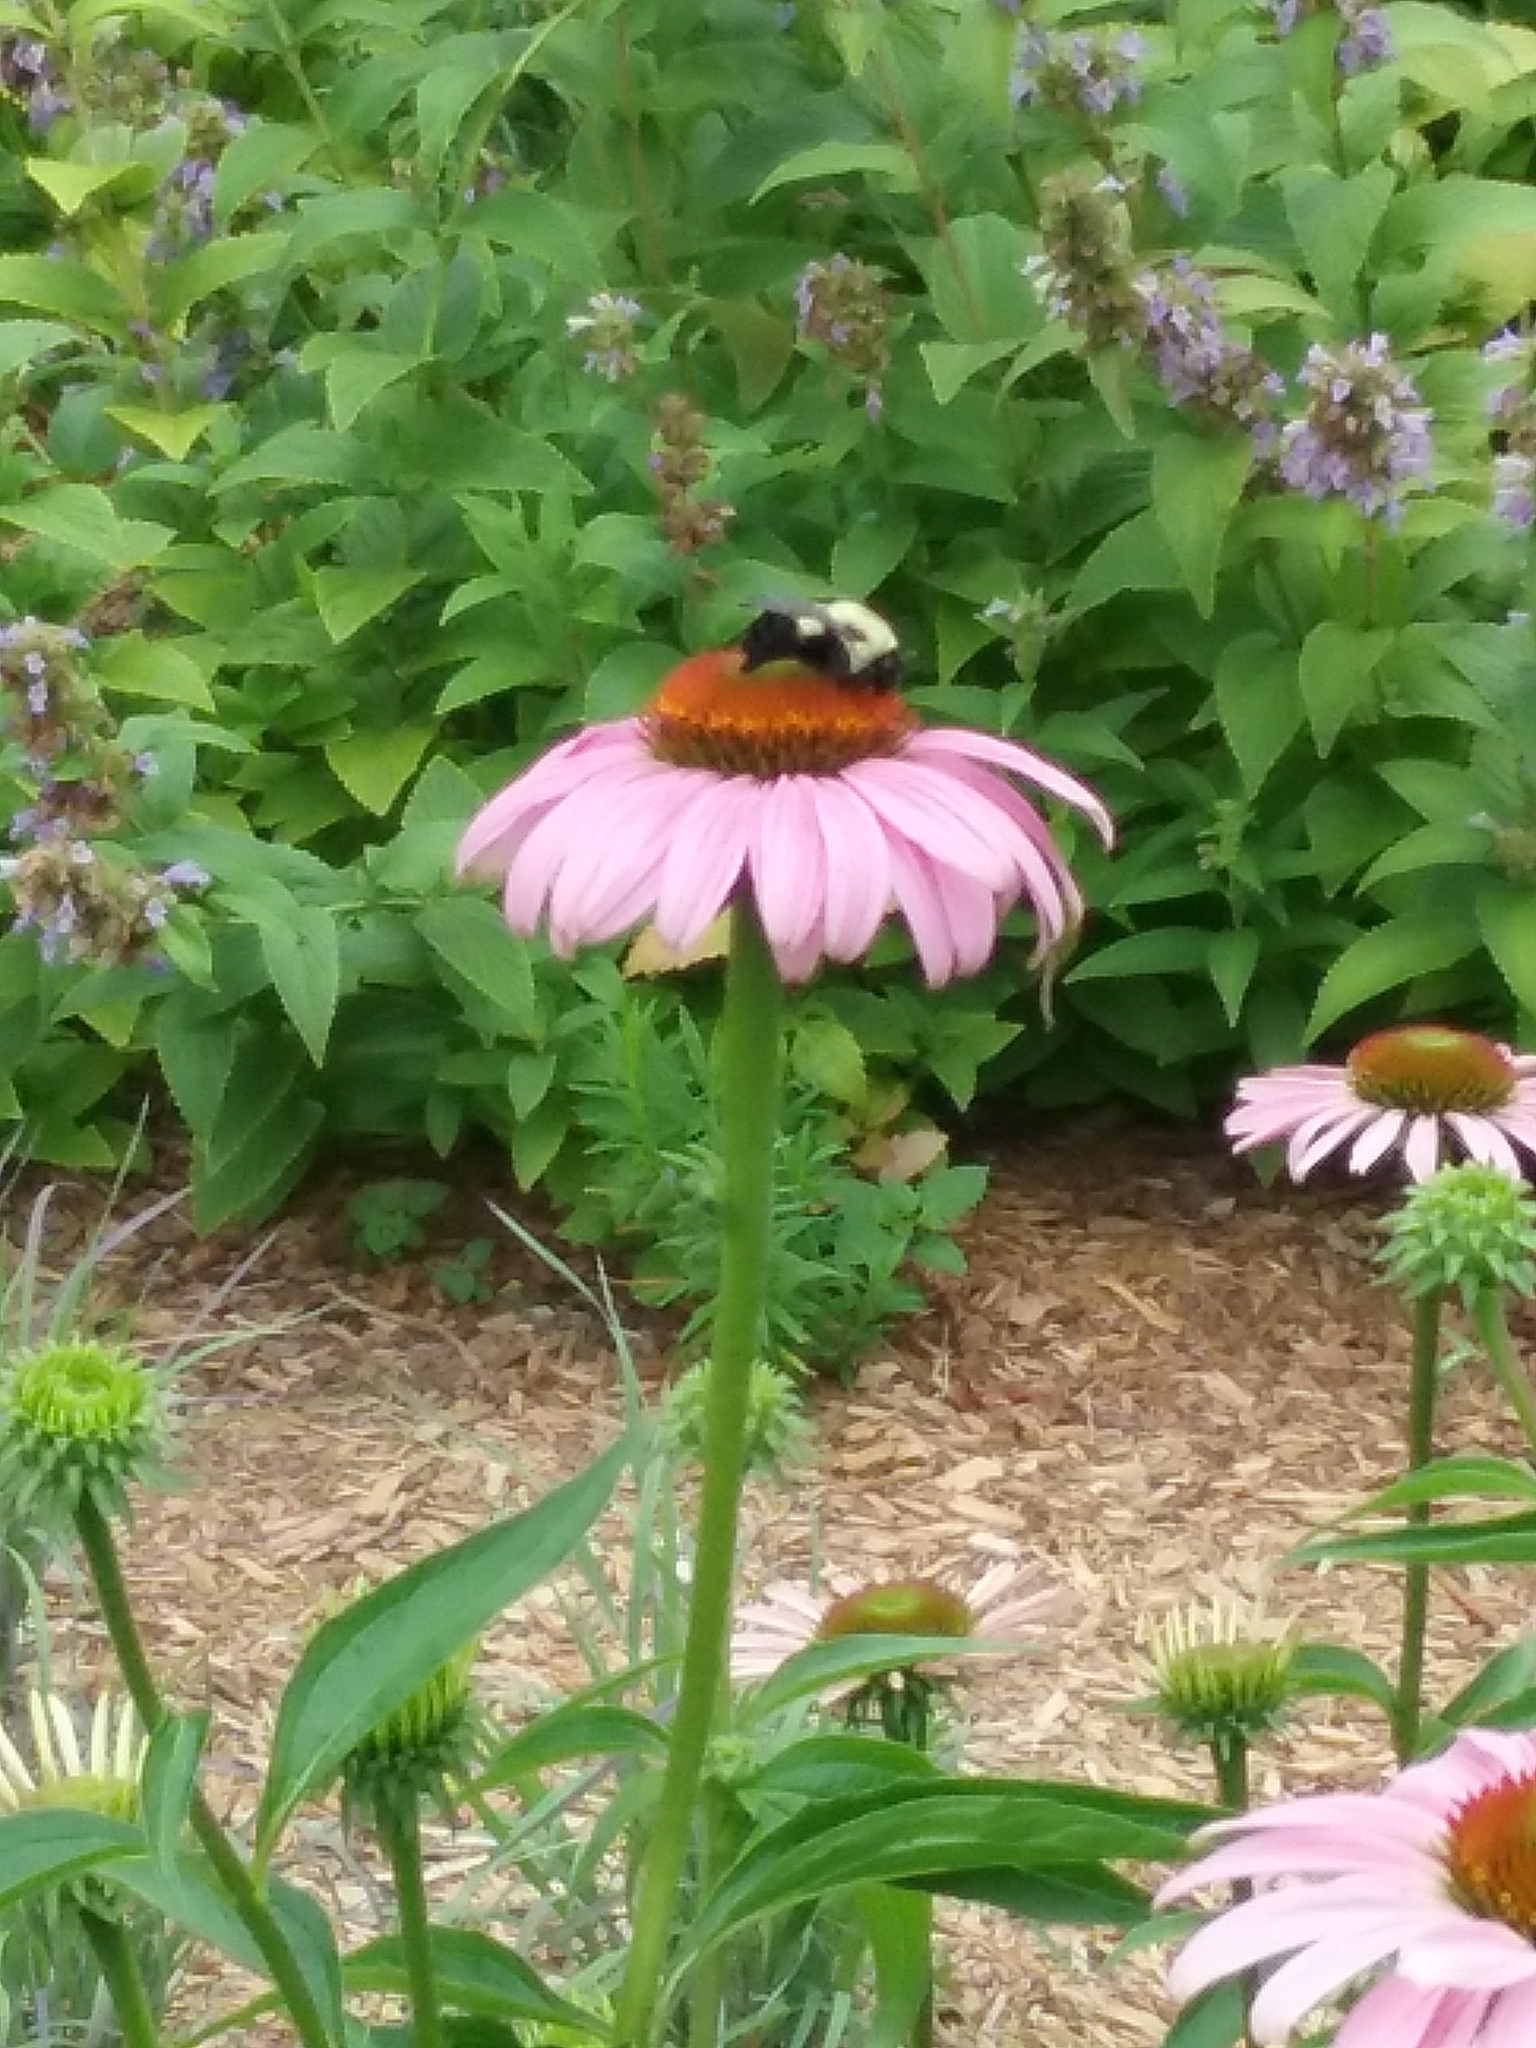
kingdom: Animalia
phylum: Arthropoda
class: Insecta
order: Hymenoptera
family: Apidae
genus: Bombus
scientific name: Bombus
